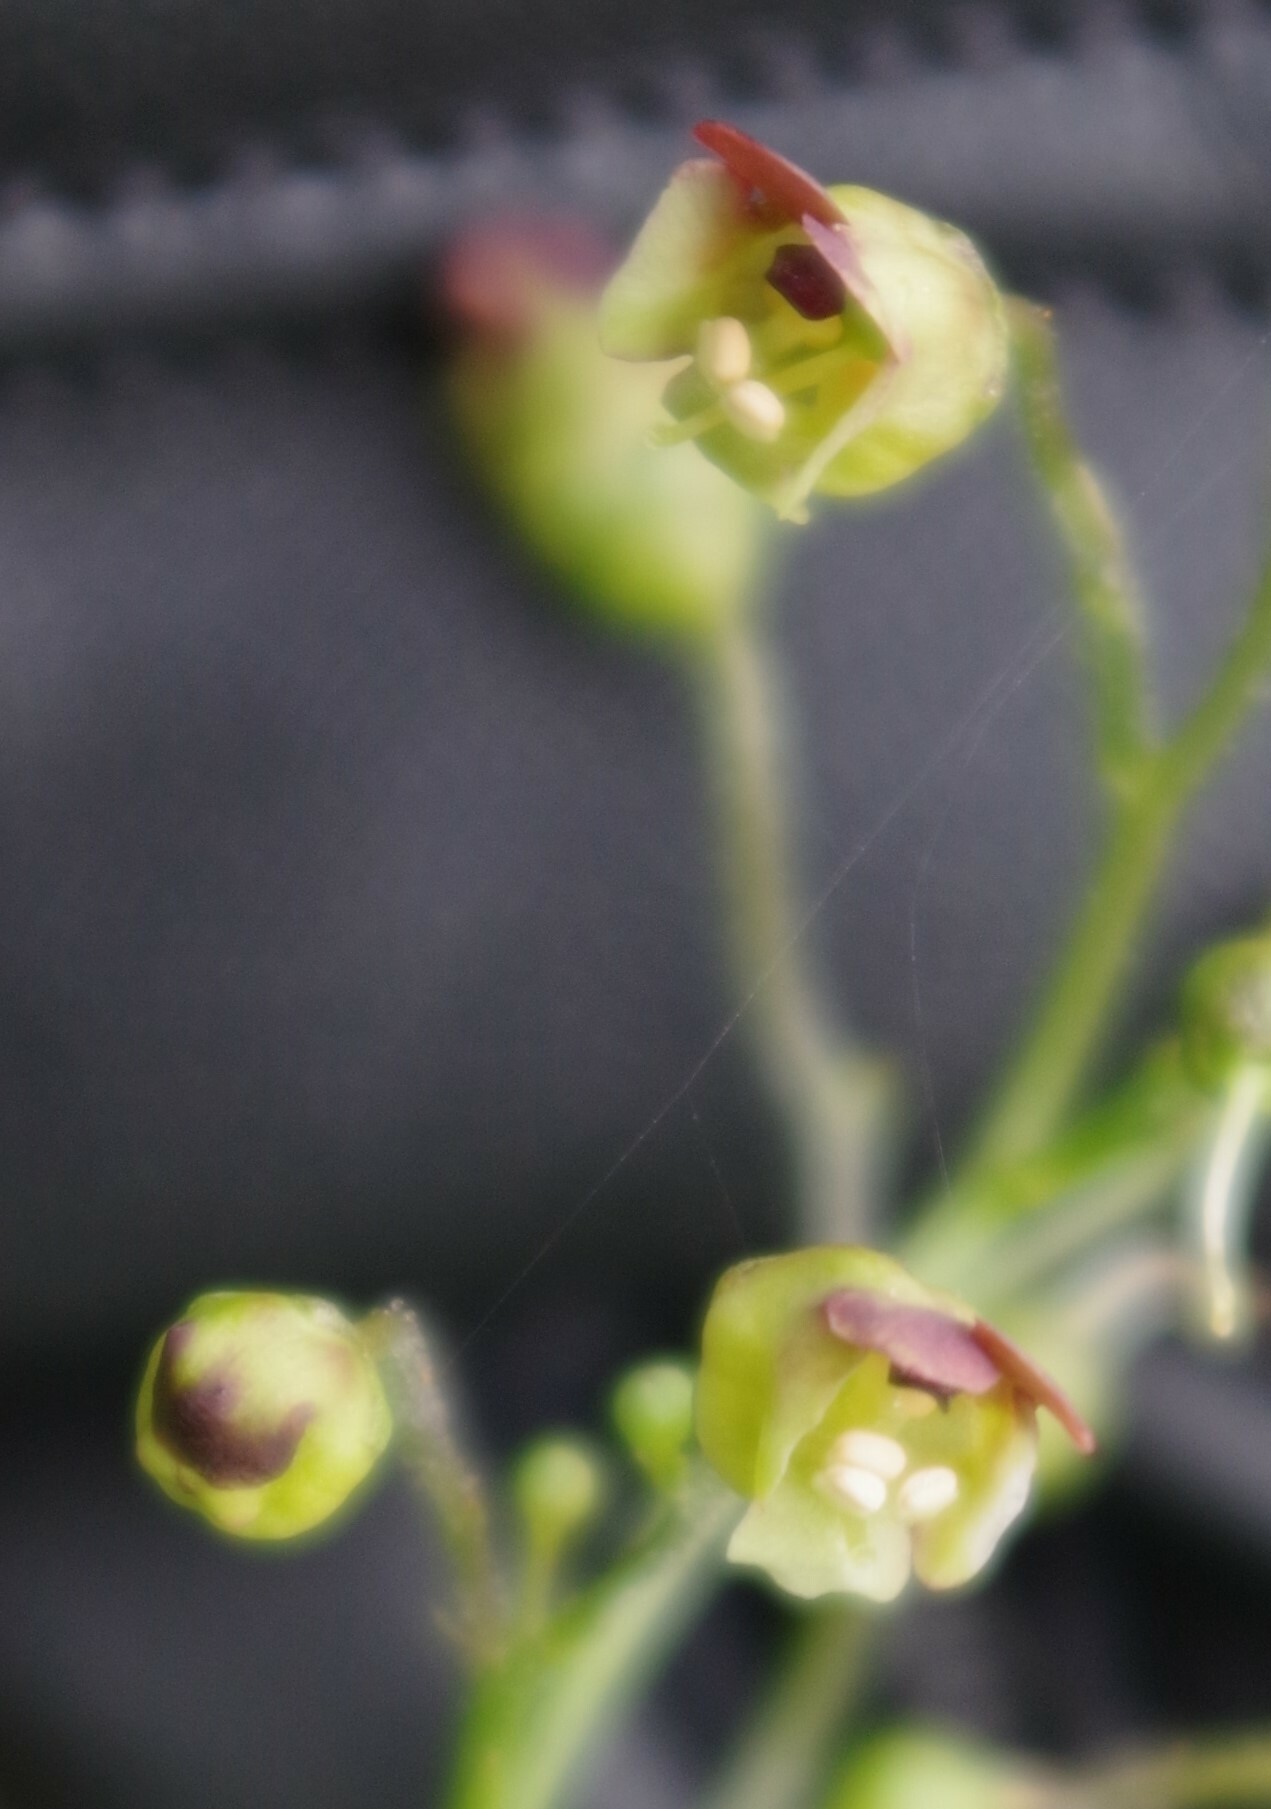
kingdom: Plantae
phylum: Tracheophyta
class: Magnoliopsida
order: Lamiales
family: Scrophulariaceae
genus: Scrophularia
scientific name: Scrophularia nodosa
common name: Common figwort
